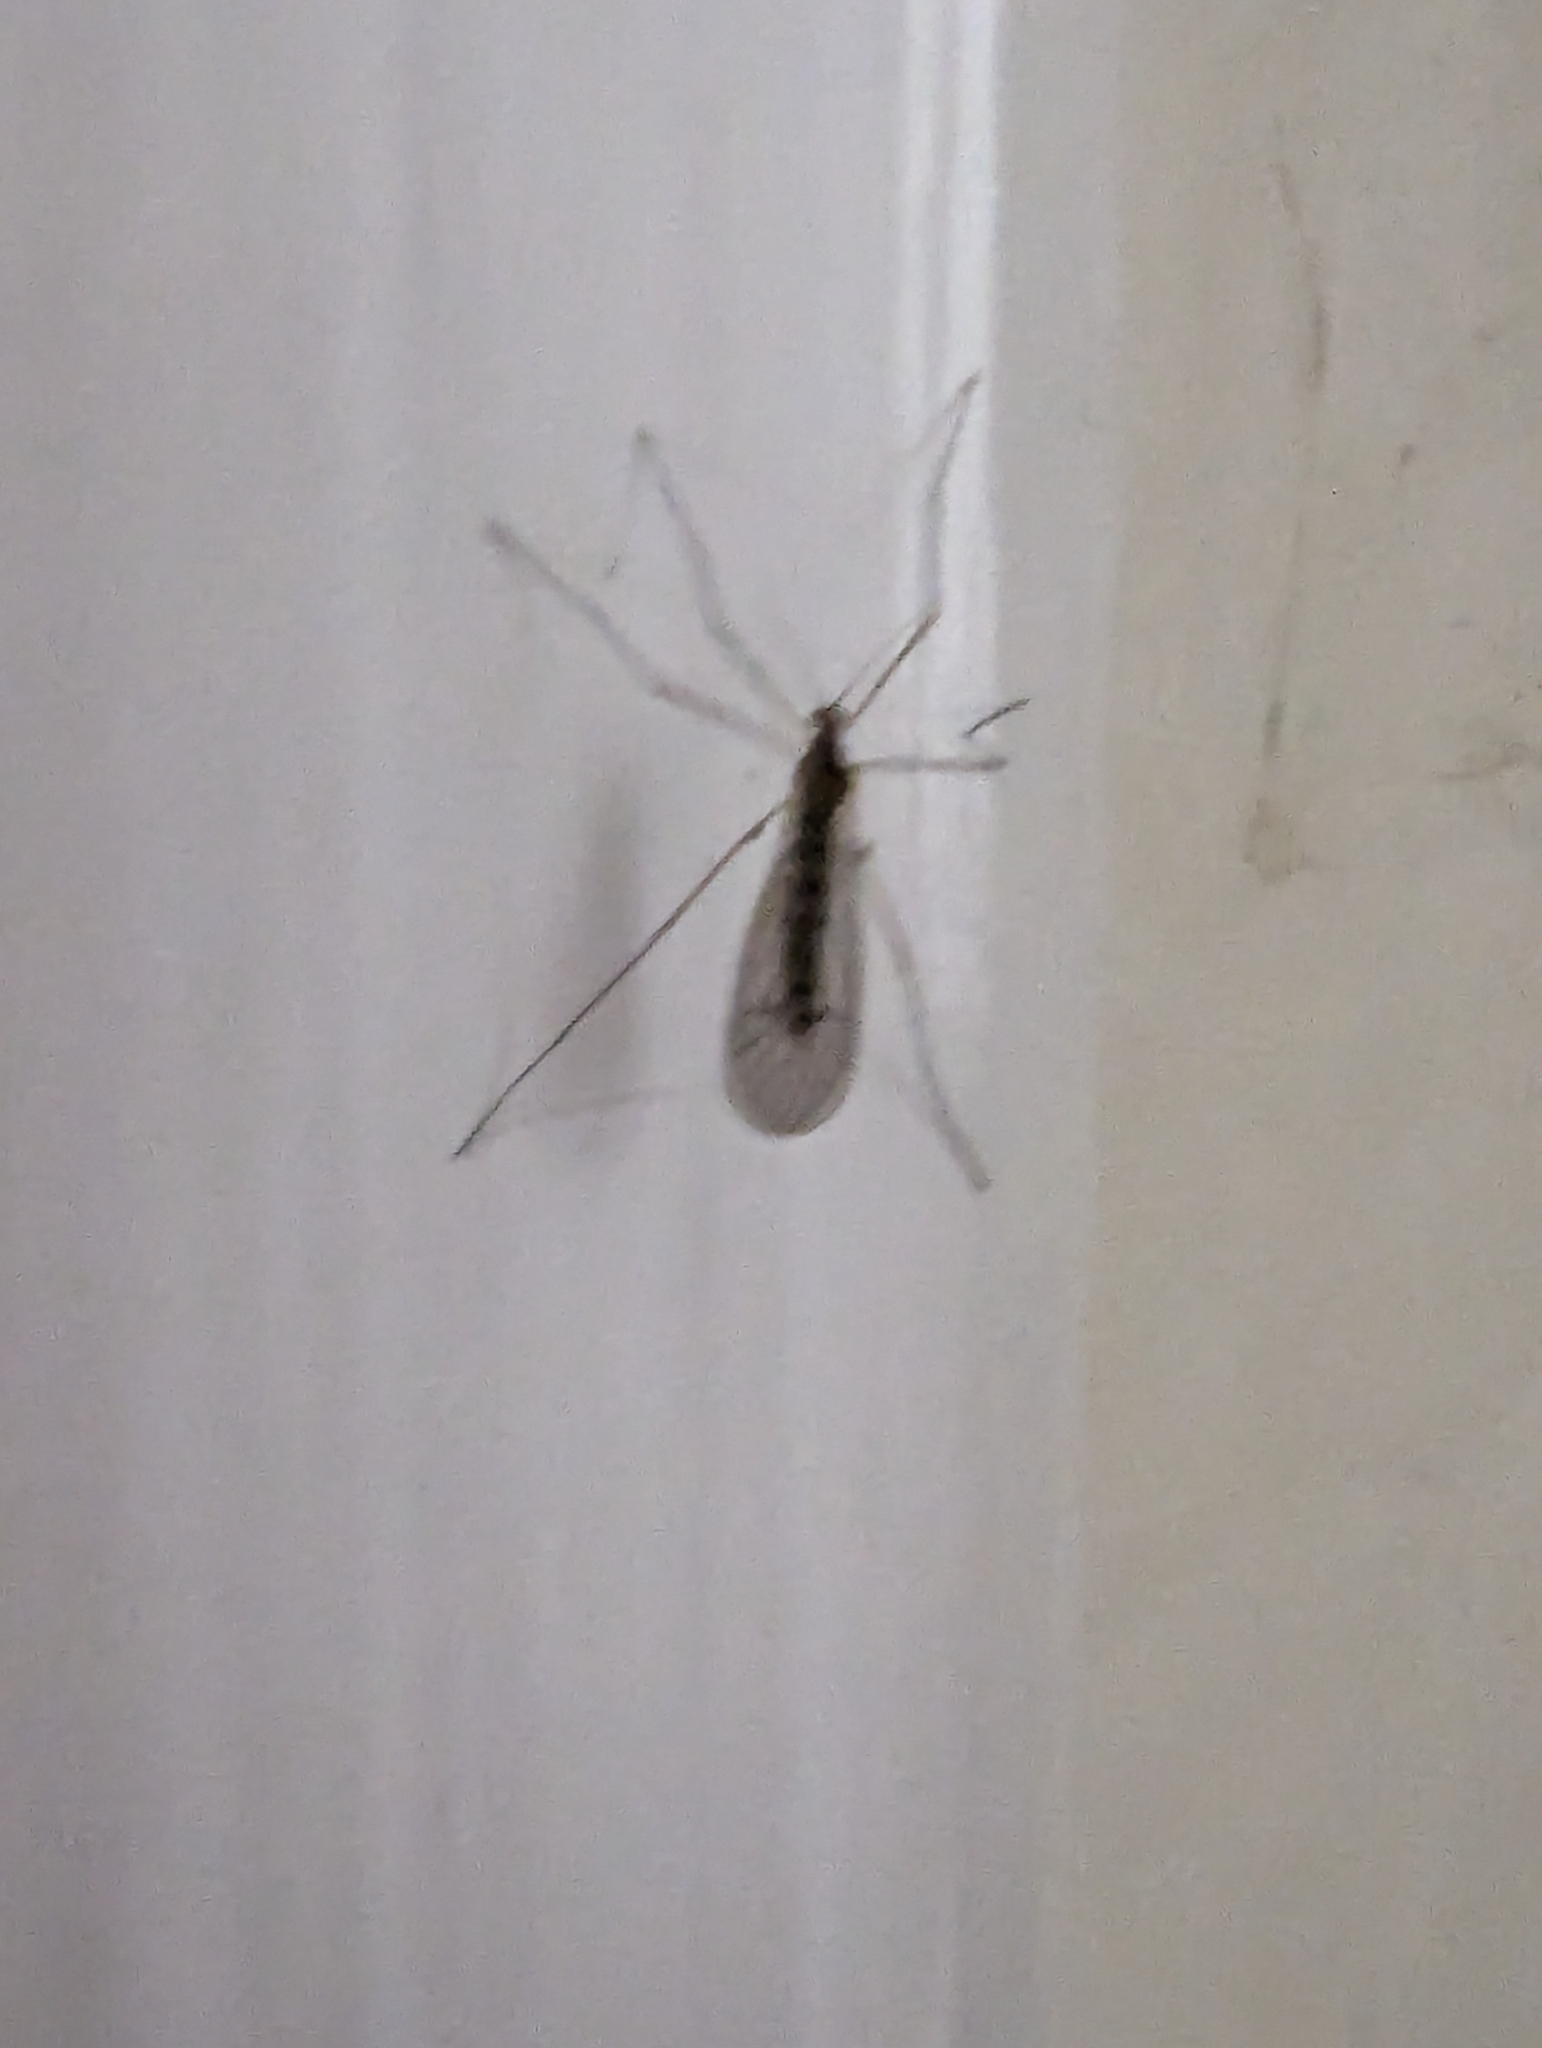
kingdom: Animalia
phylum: Arthropoda
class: Insecta
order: Diptera
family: Trichoceridae
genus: Trichocera
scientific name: Trichocera annulata
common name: Winter gnat
